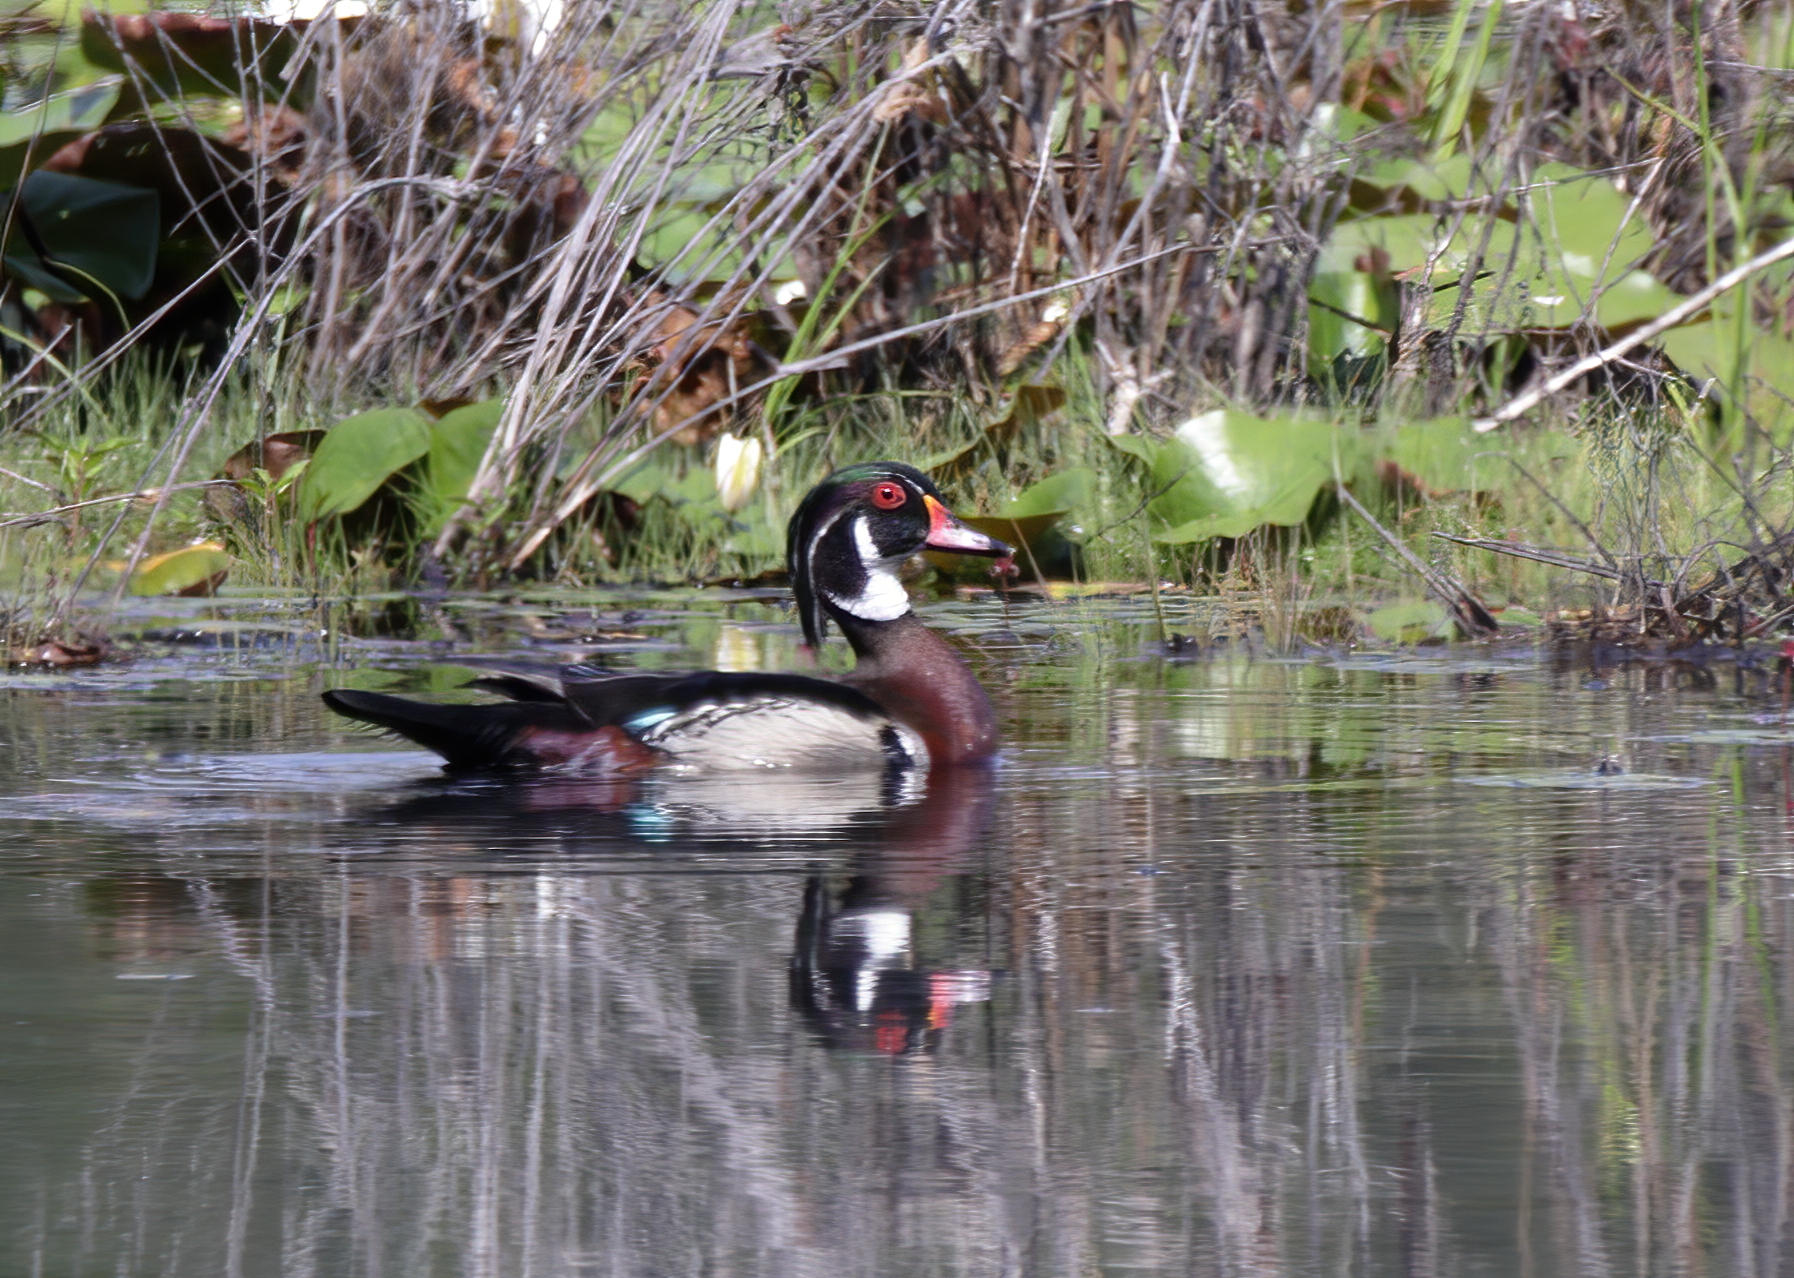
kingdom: Animalia
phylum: Chordata
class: Aves
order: Anseriformes
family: Anatidae
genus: Aix
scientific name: Aix sponsa
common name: Wood duck
